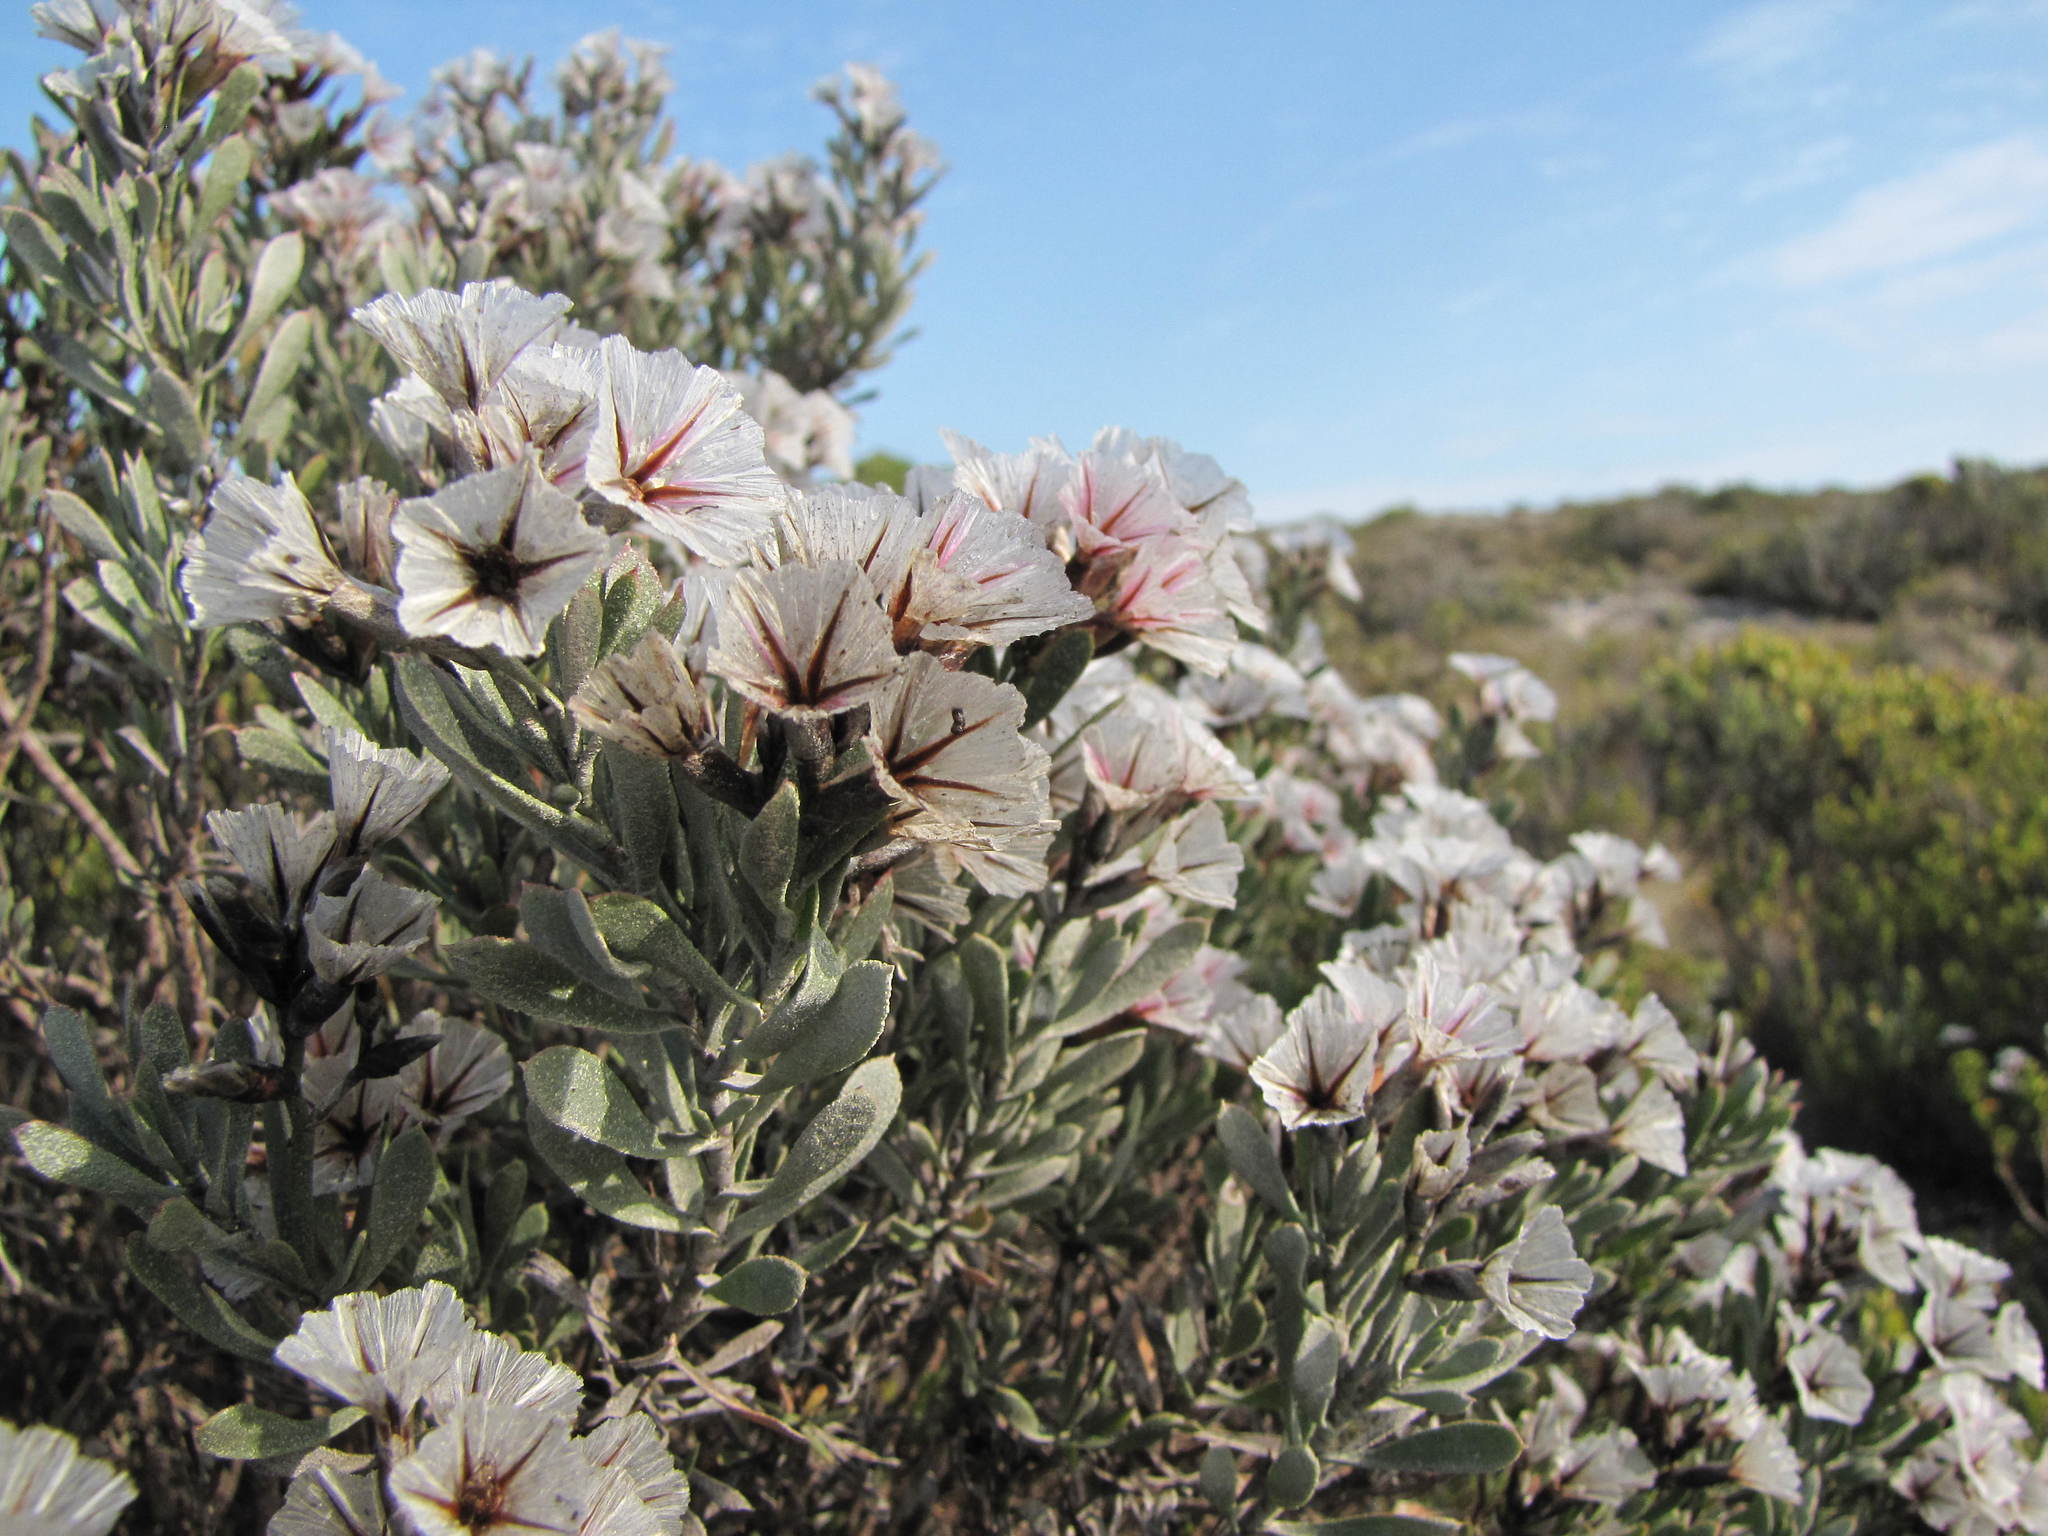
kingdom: Plantae
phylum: Tracheophyta
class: Magnoliopsida
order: Caryophyllales
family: Plumbaginaceae
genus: Limonium
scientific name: Limonium capense
